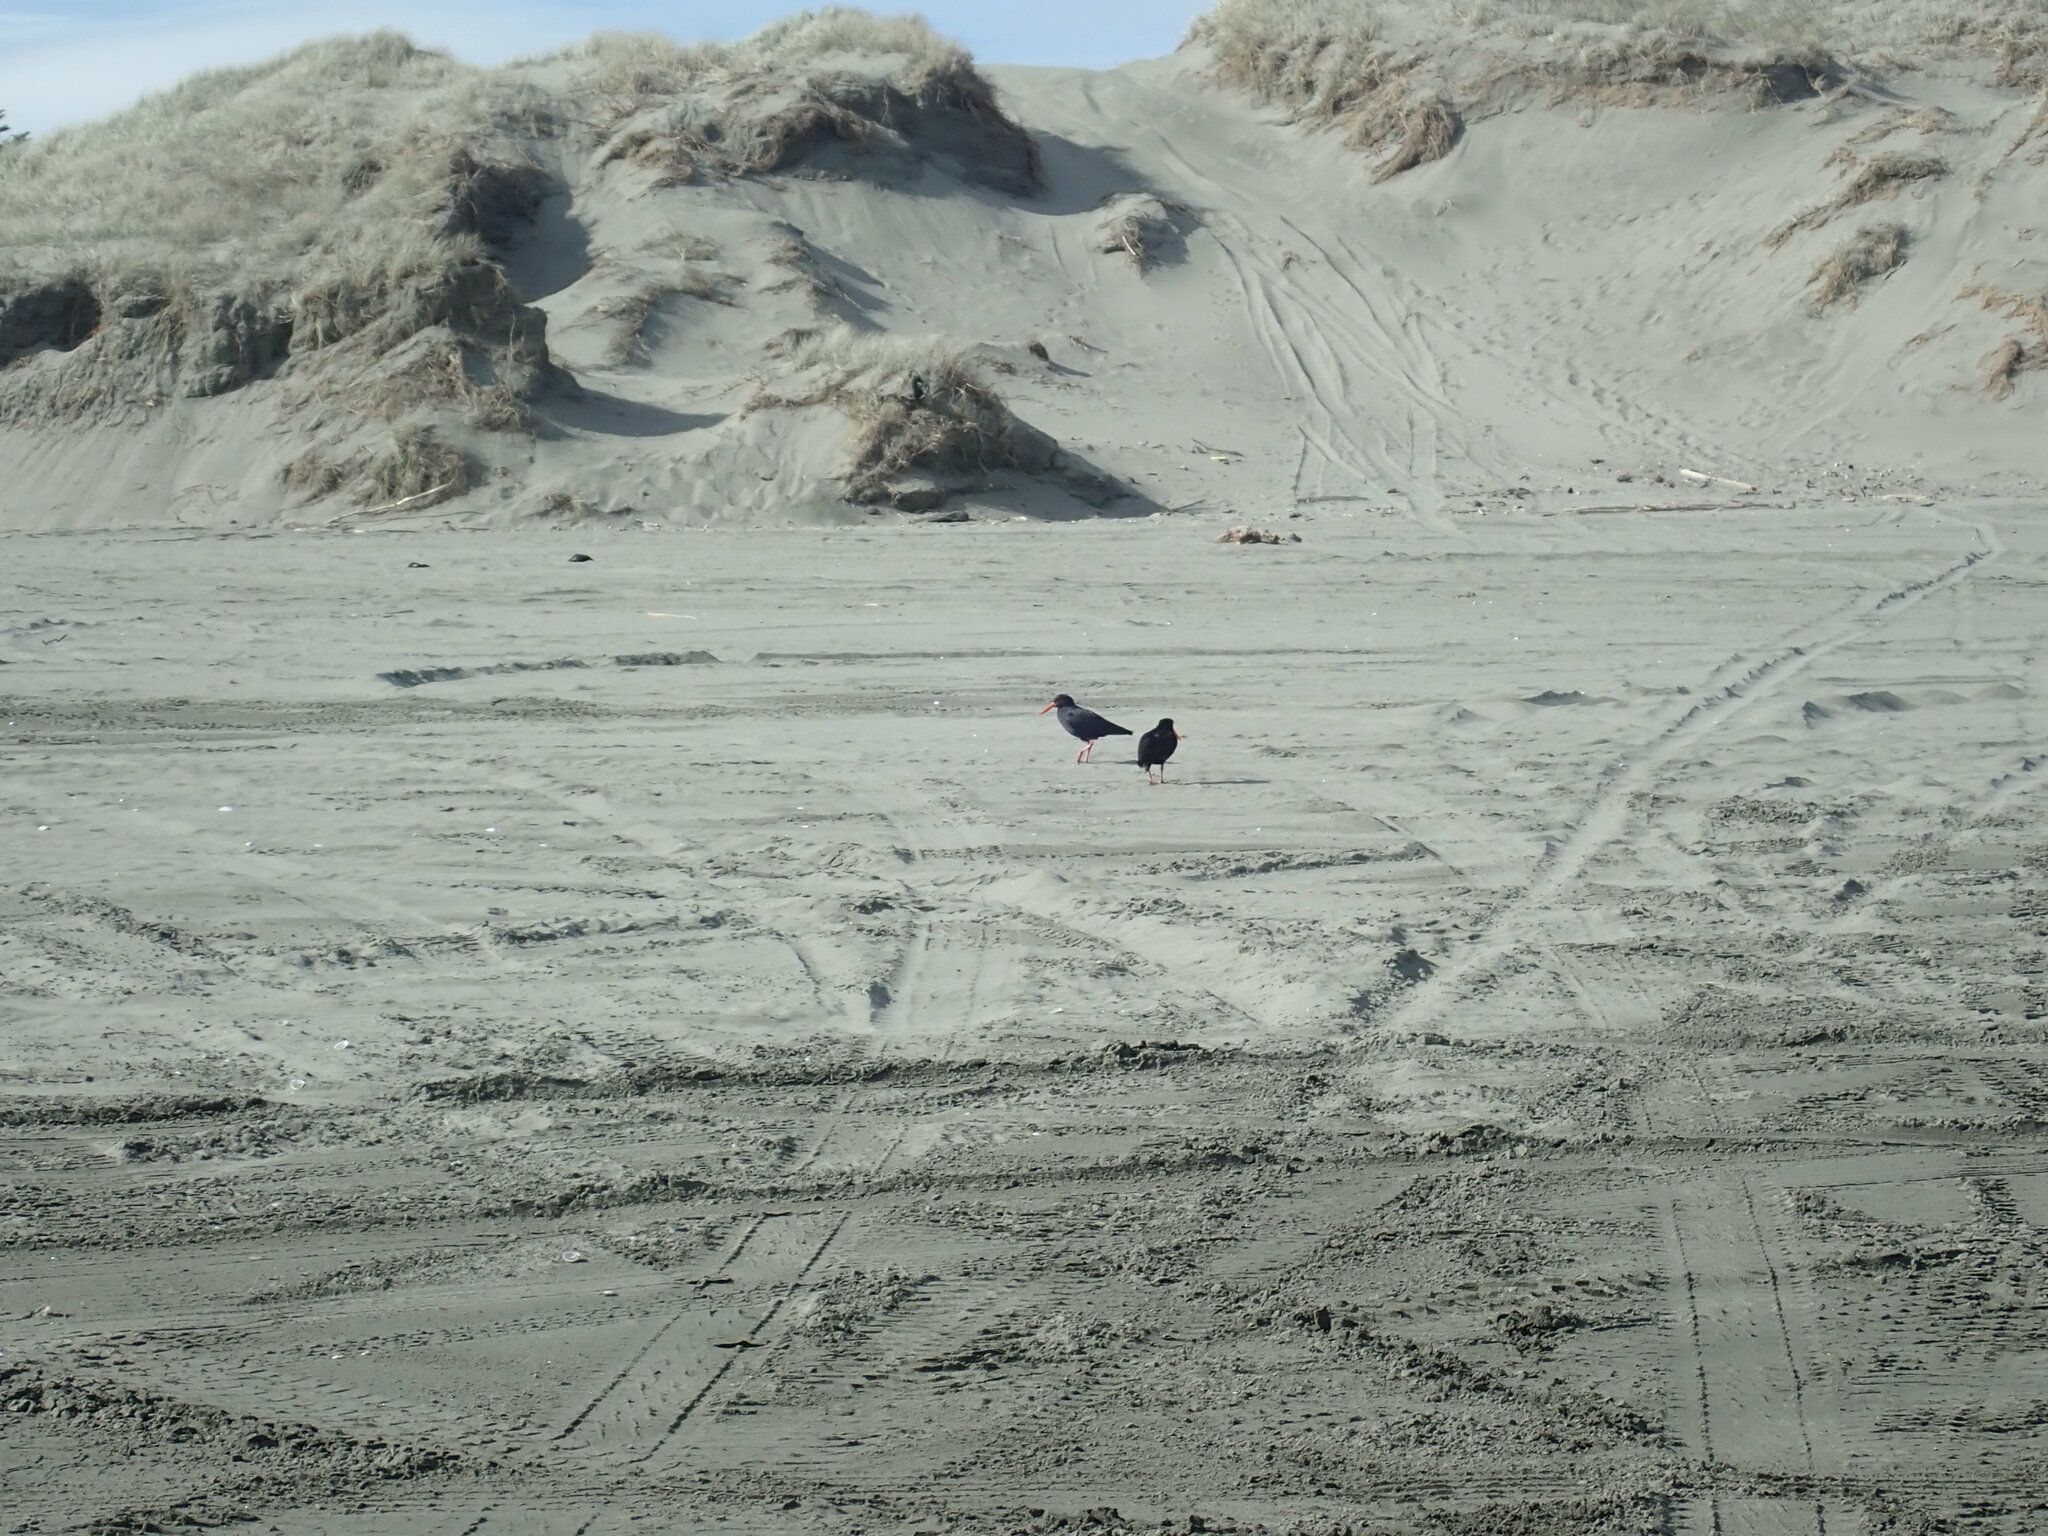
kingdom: Animalia
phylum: Chordata
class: Aves
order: Charadriiformes
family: Haematopodidae
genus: Haematopus
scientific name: Haematopus unicolor
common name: Variable oystercatcher
